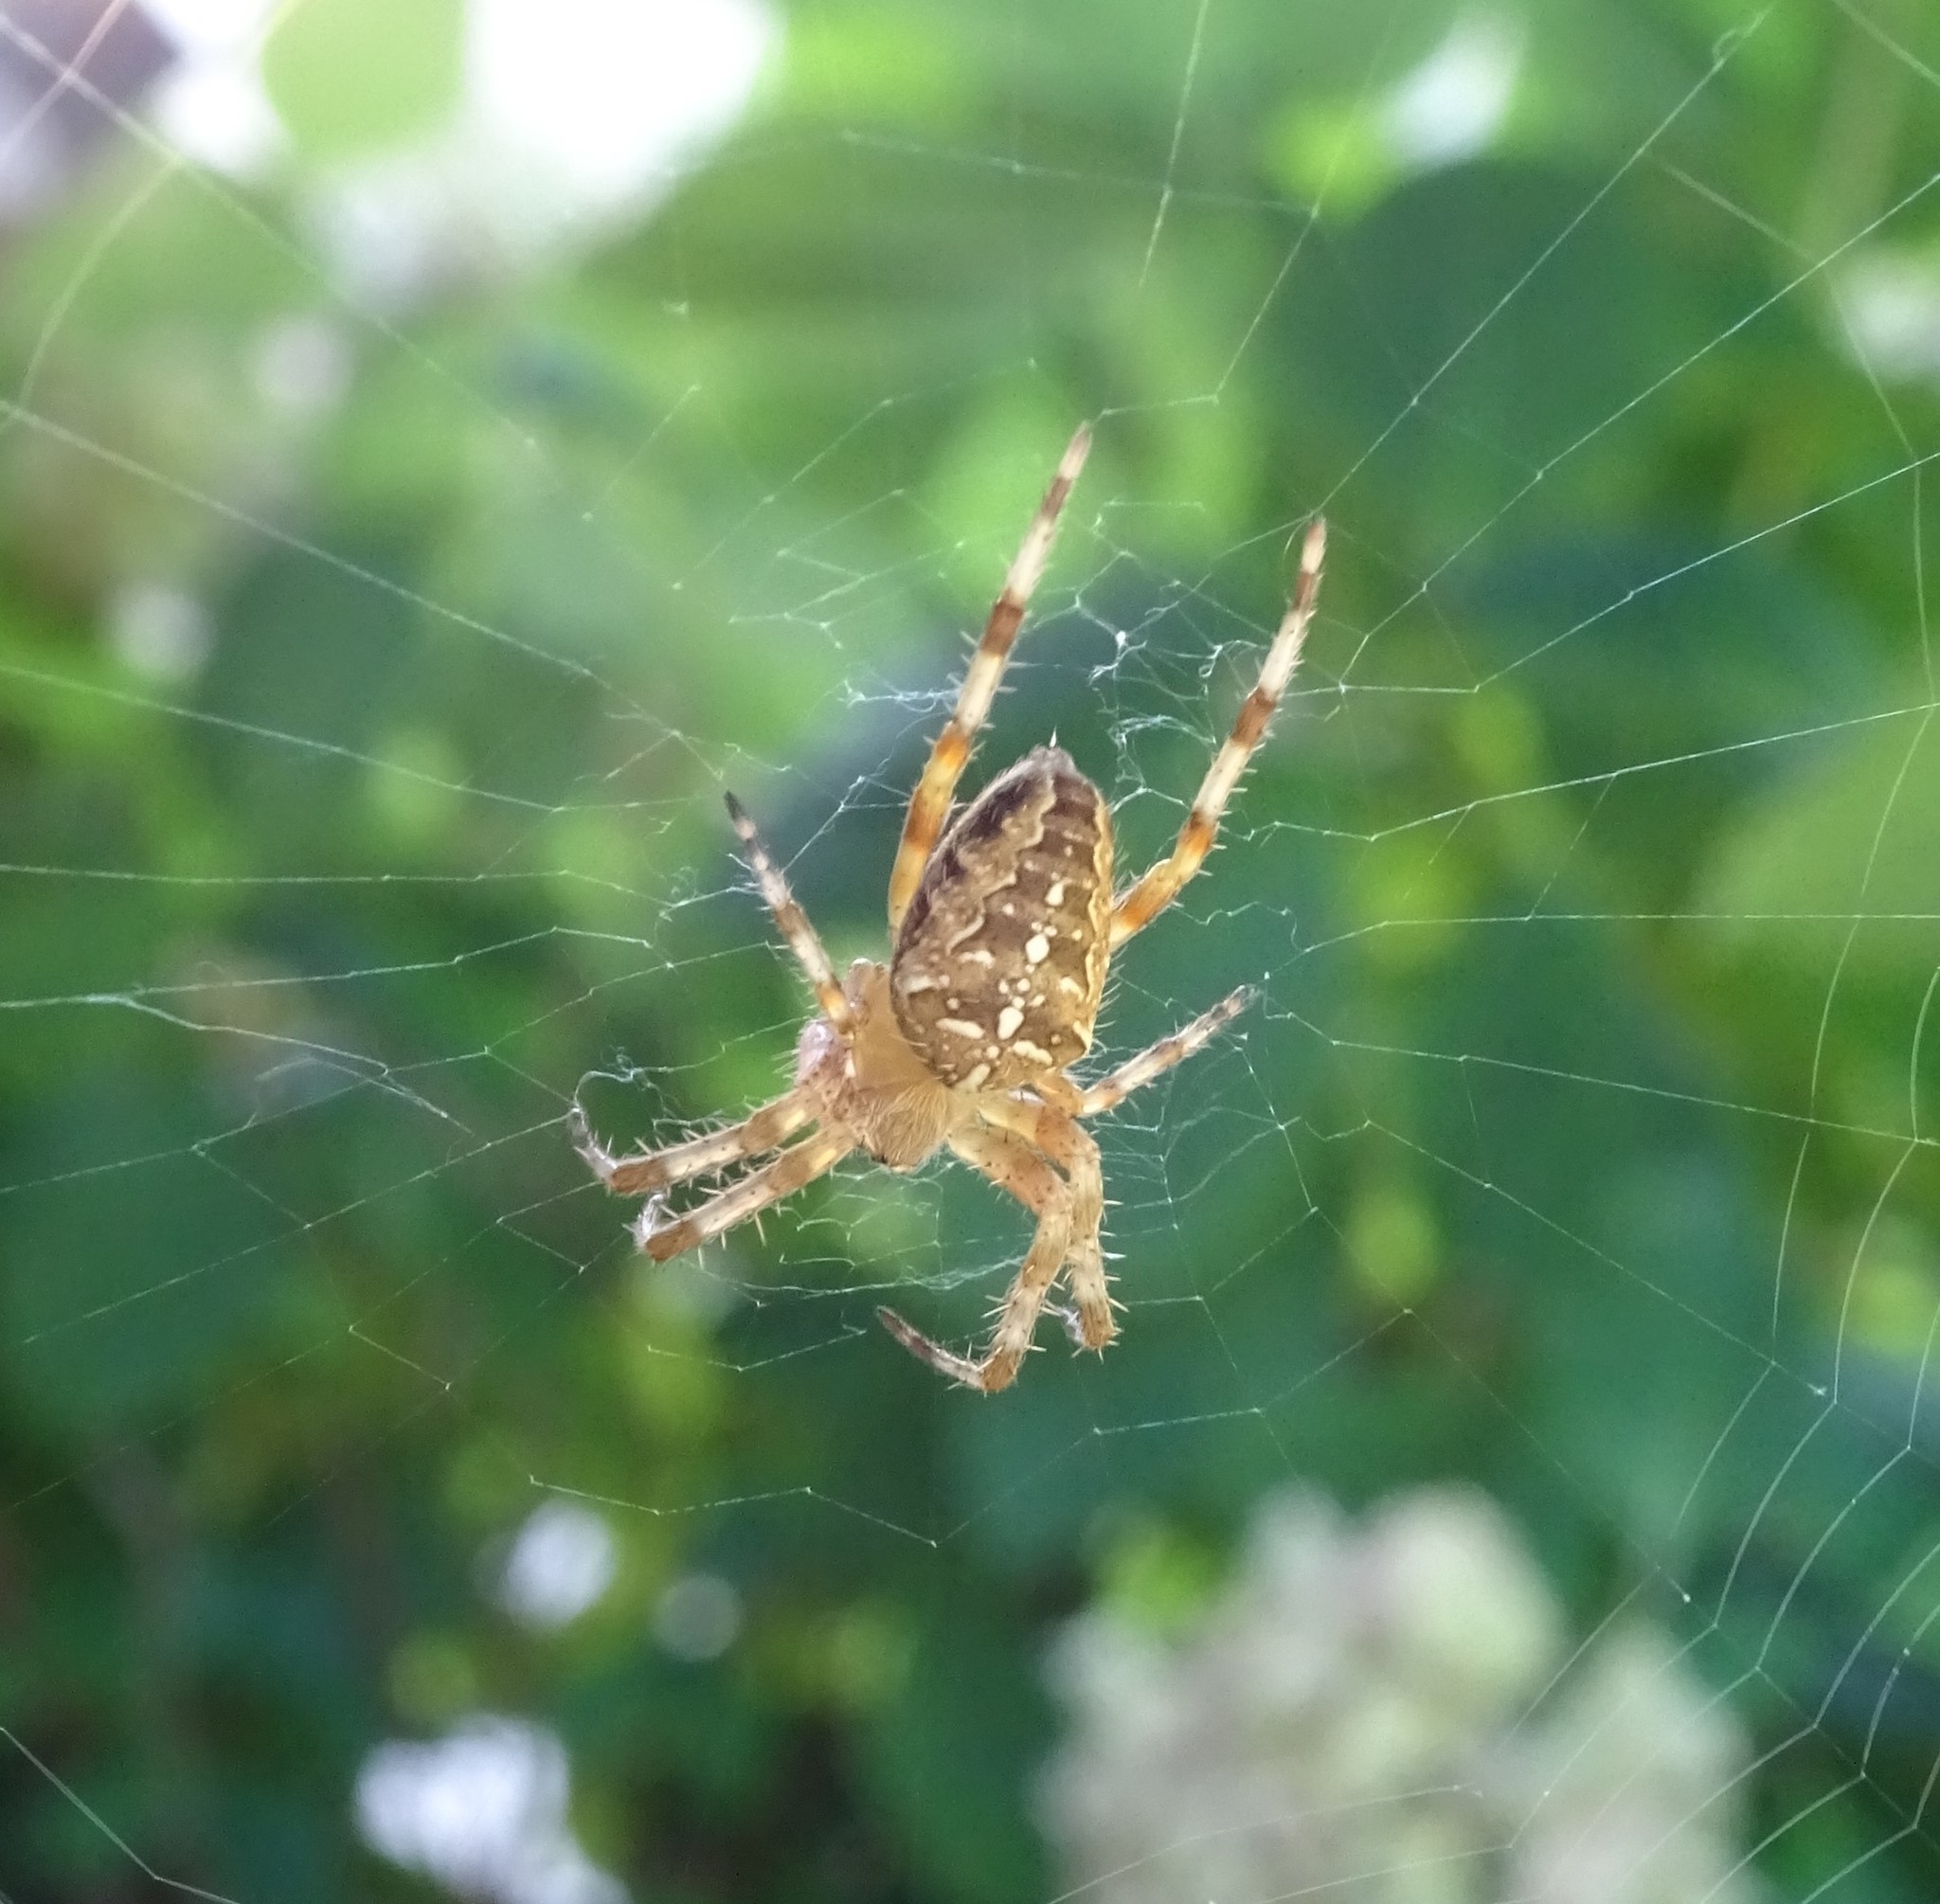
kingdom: Animalia
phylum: Arthropoda
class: Arachnida
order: Araneae
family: Araneidae
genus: Araneus
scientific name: Araneus diadematus
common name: Cross orbweaver
